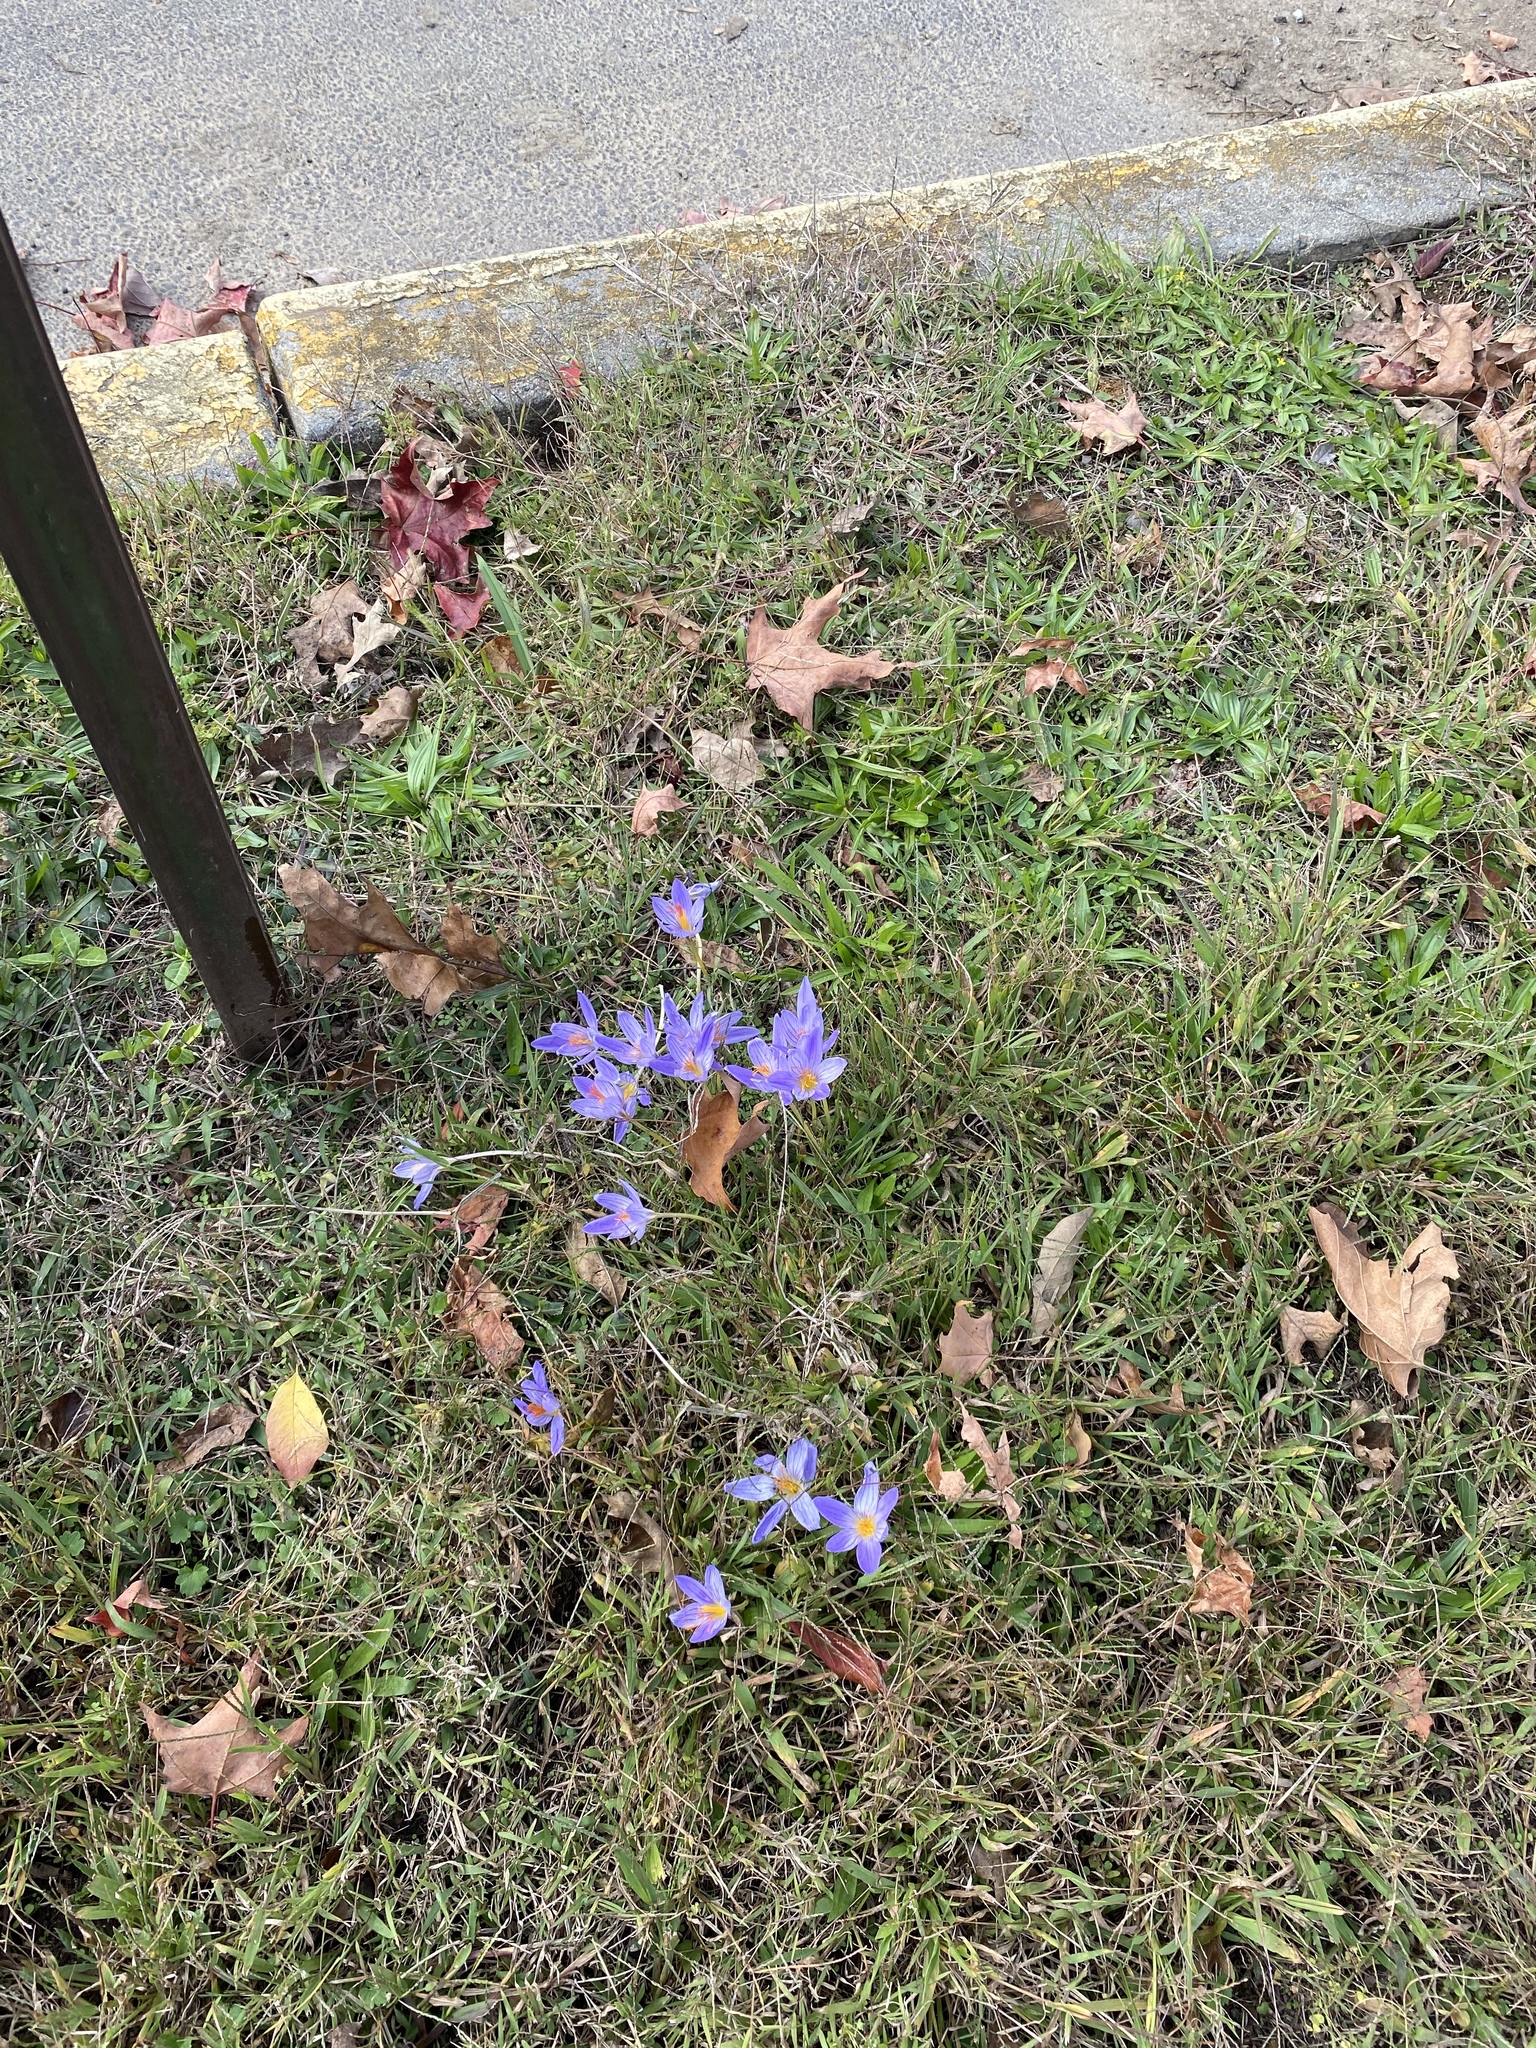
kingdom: Plantae
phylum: Tracheophyta
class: Liliopsida
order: Asparagales
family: Iridaceae
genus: Crocus
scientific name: Crocus speciosus
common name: Bieberstein's crocus
